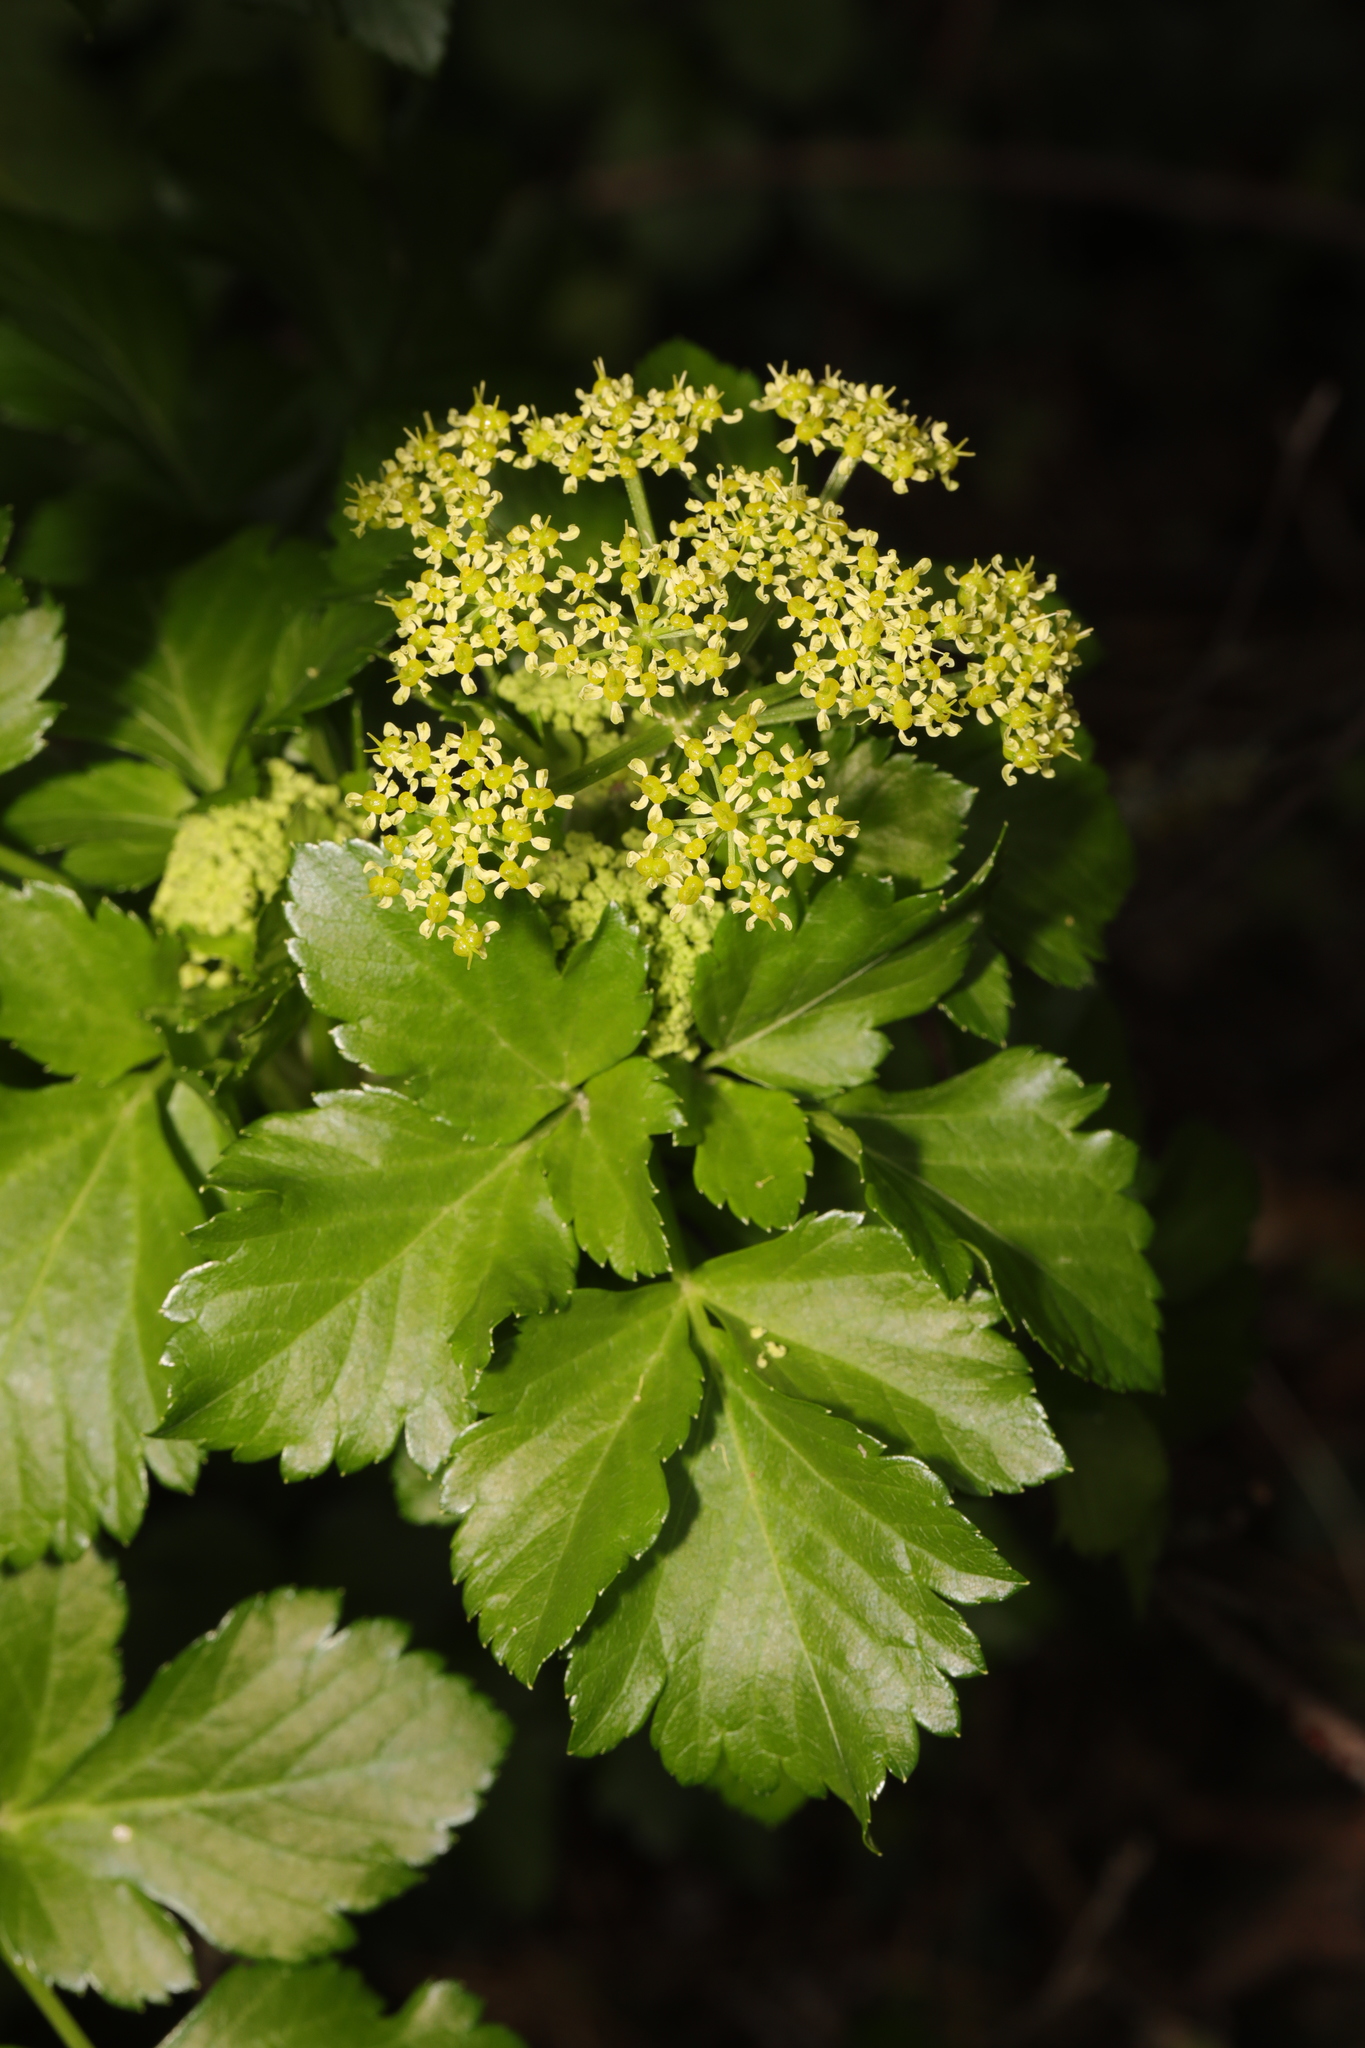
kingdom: Plantae
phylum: Tracheophyta
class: Magnoliopsida
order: Apiales
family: Apiaceae
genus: Smyrnium
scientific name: Smyrnium olusatrum
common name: Alexanders
